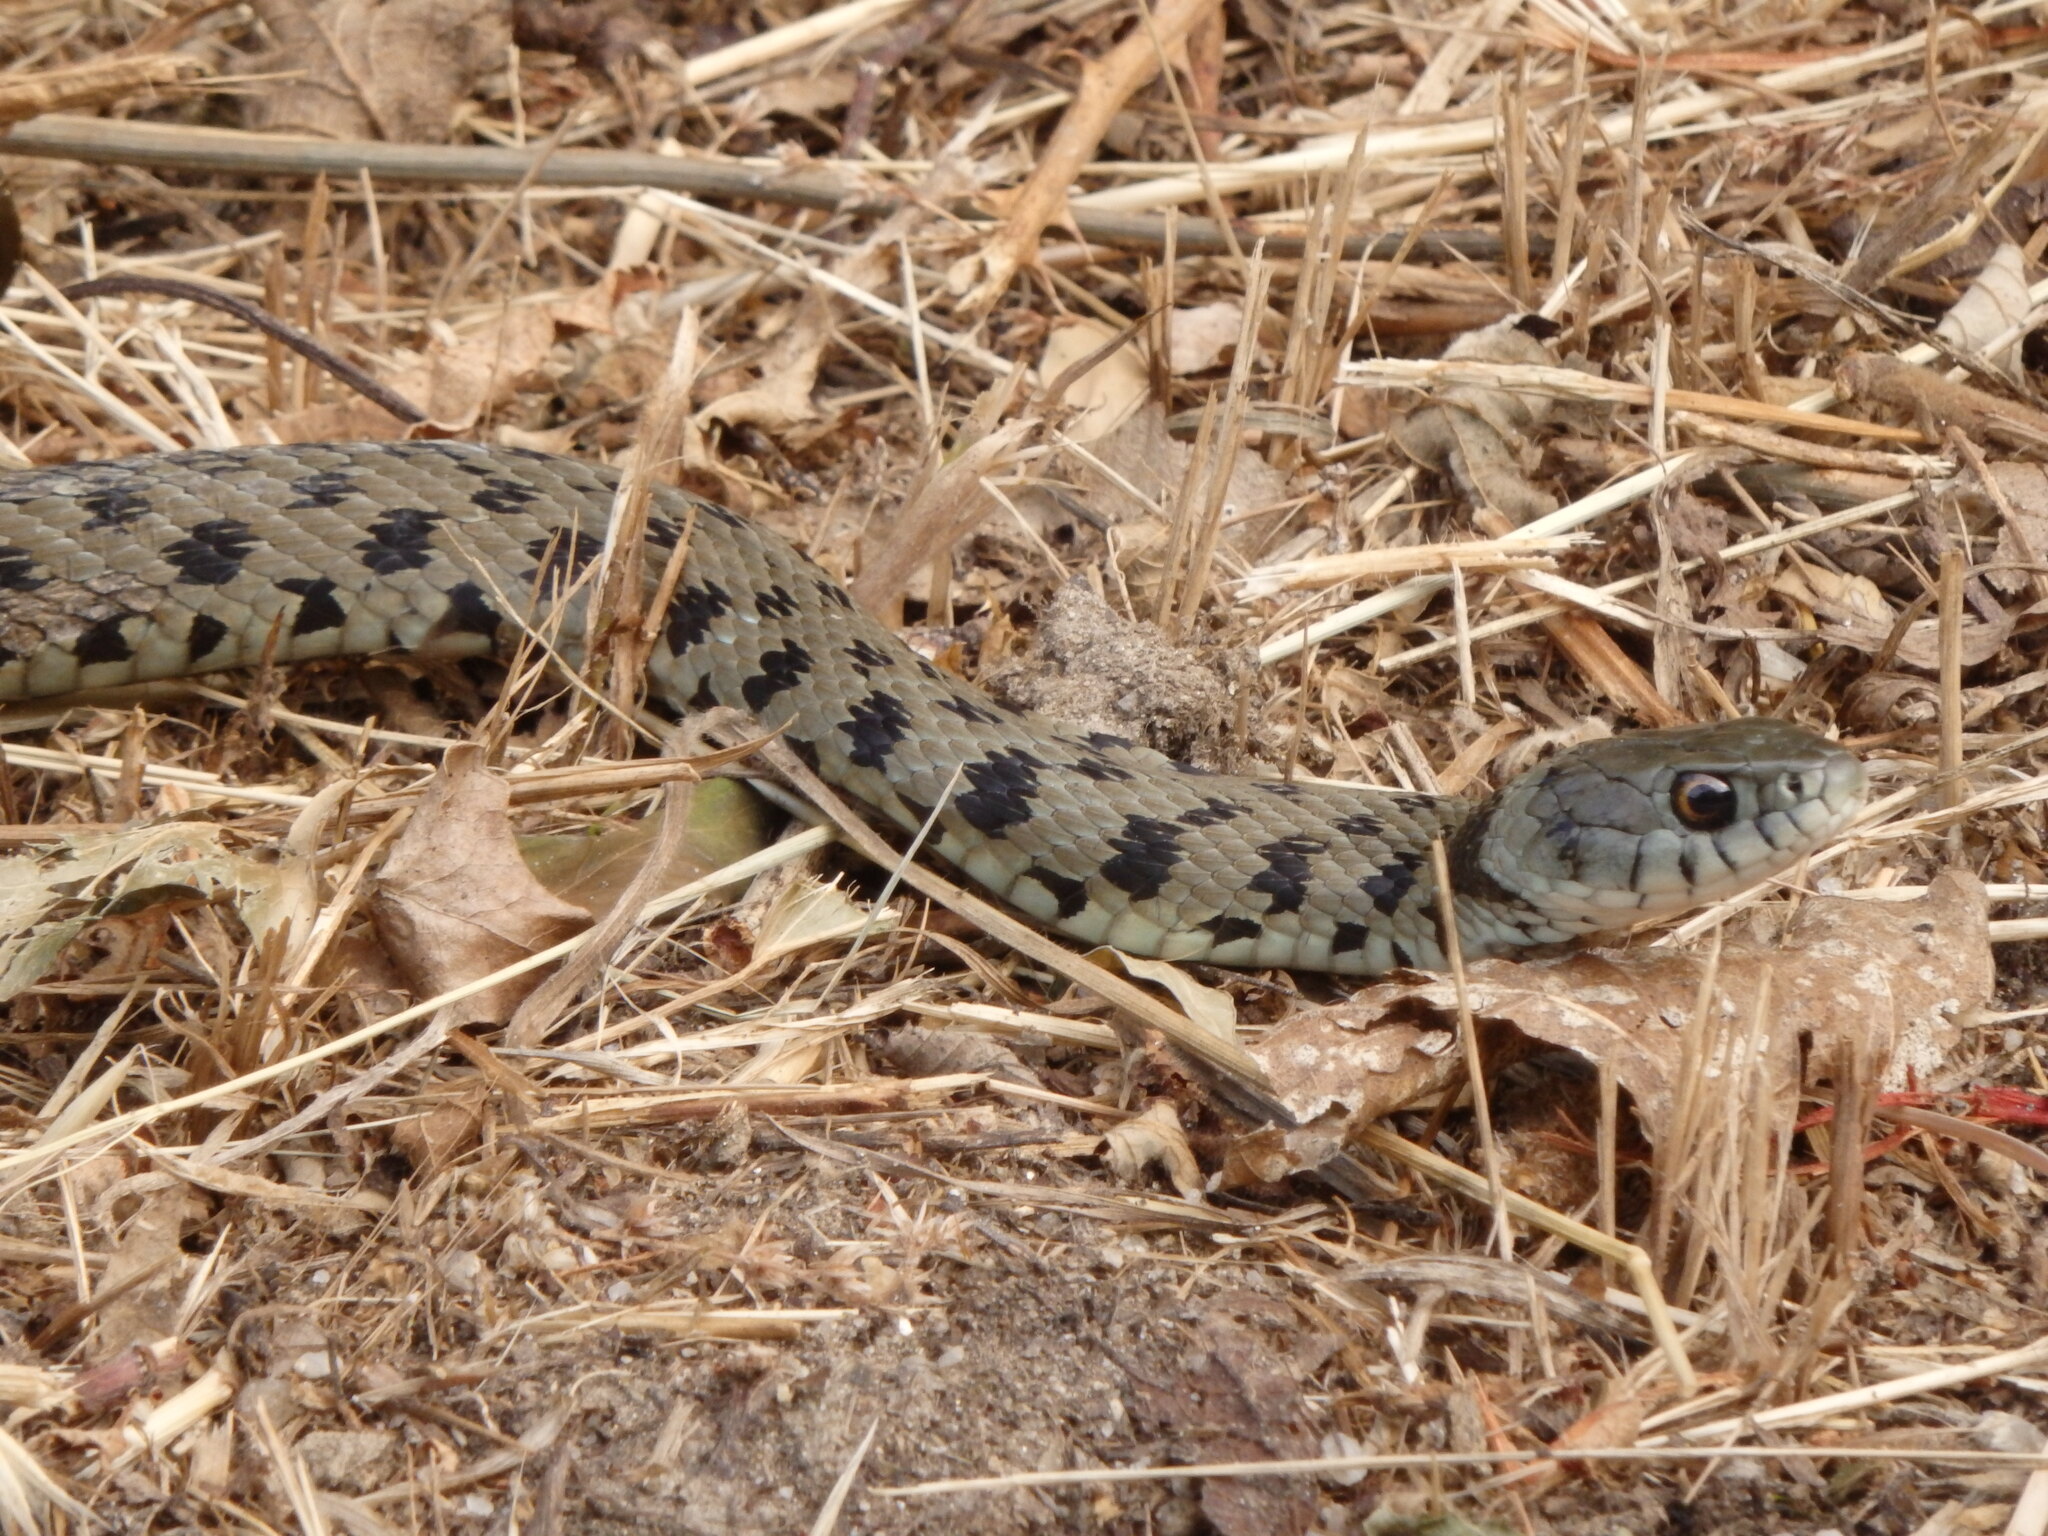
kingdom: Animalia
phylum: Chordata
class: Squamata
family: Colubridae
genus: Natrix
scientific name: Natrix astreptophora
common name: Red-eyed grass snake
